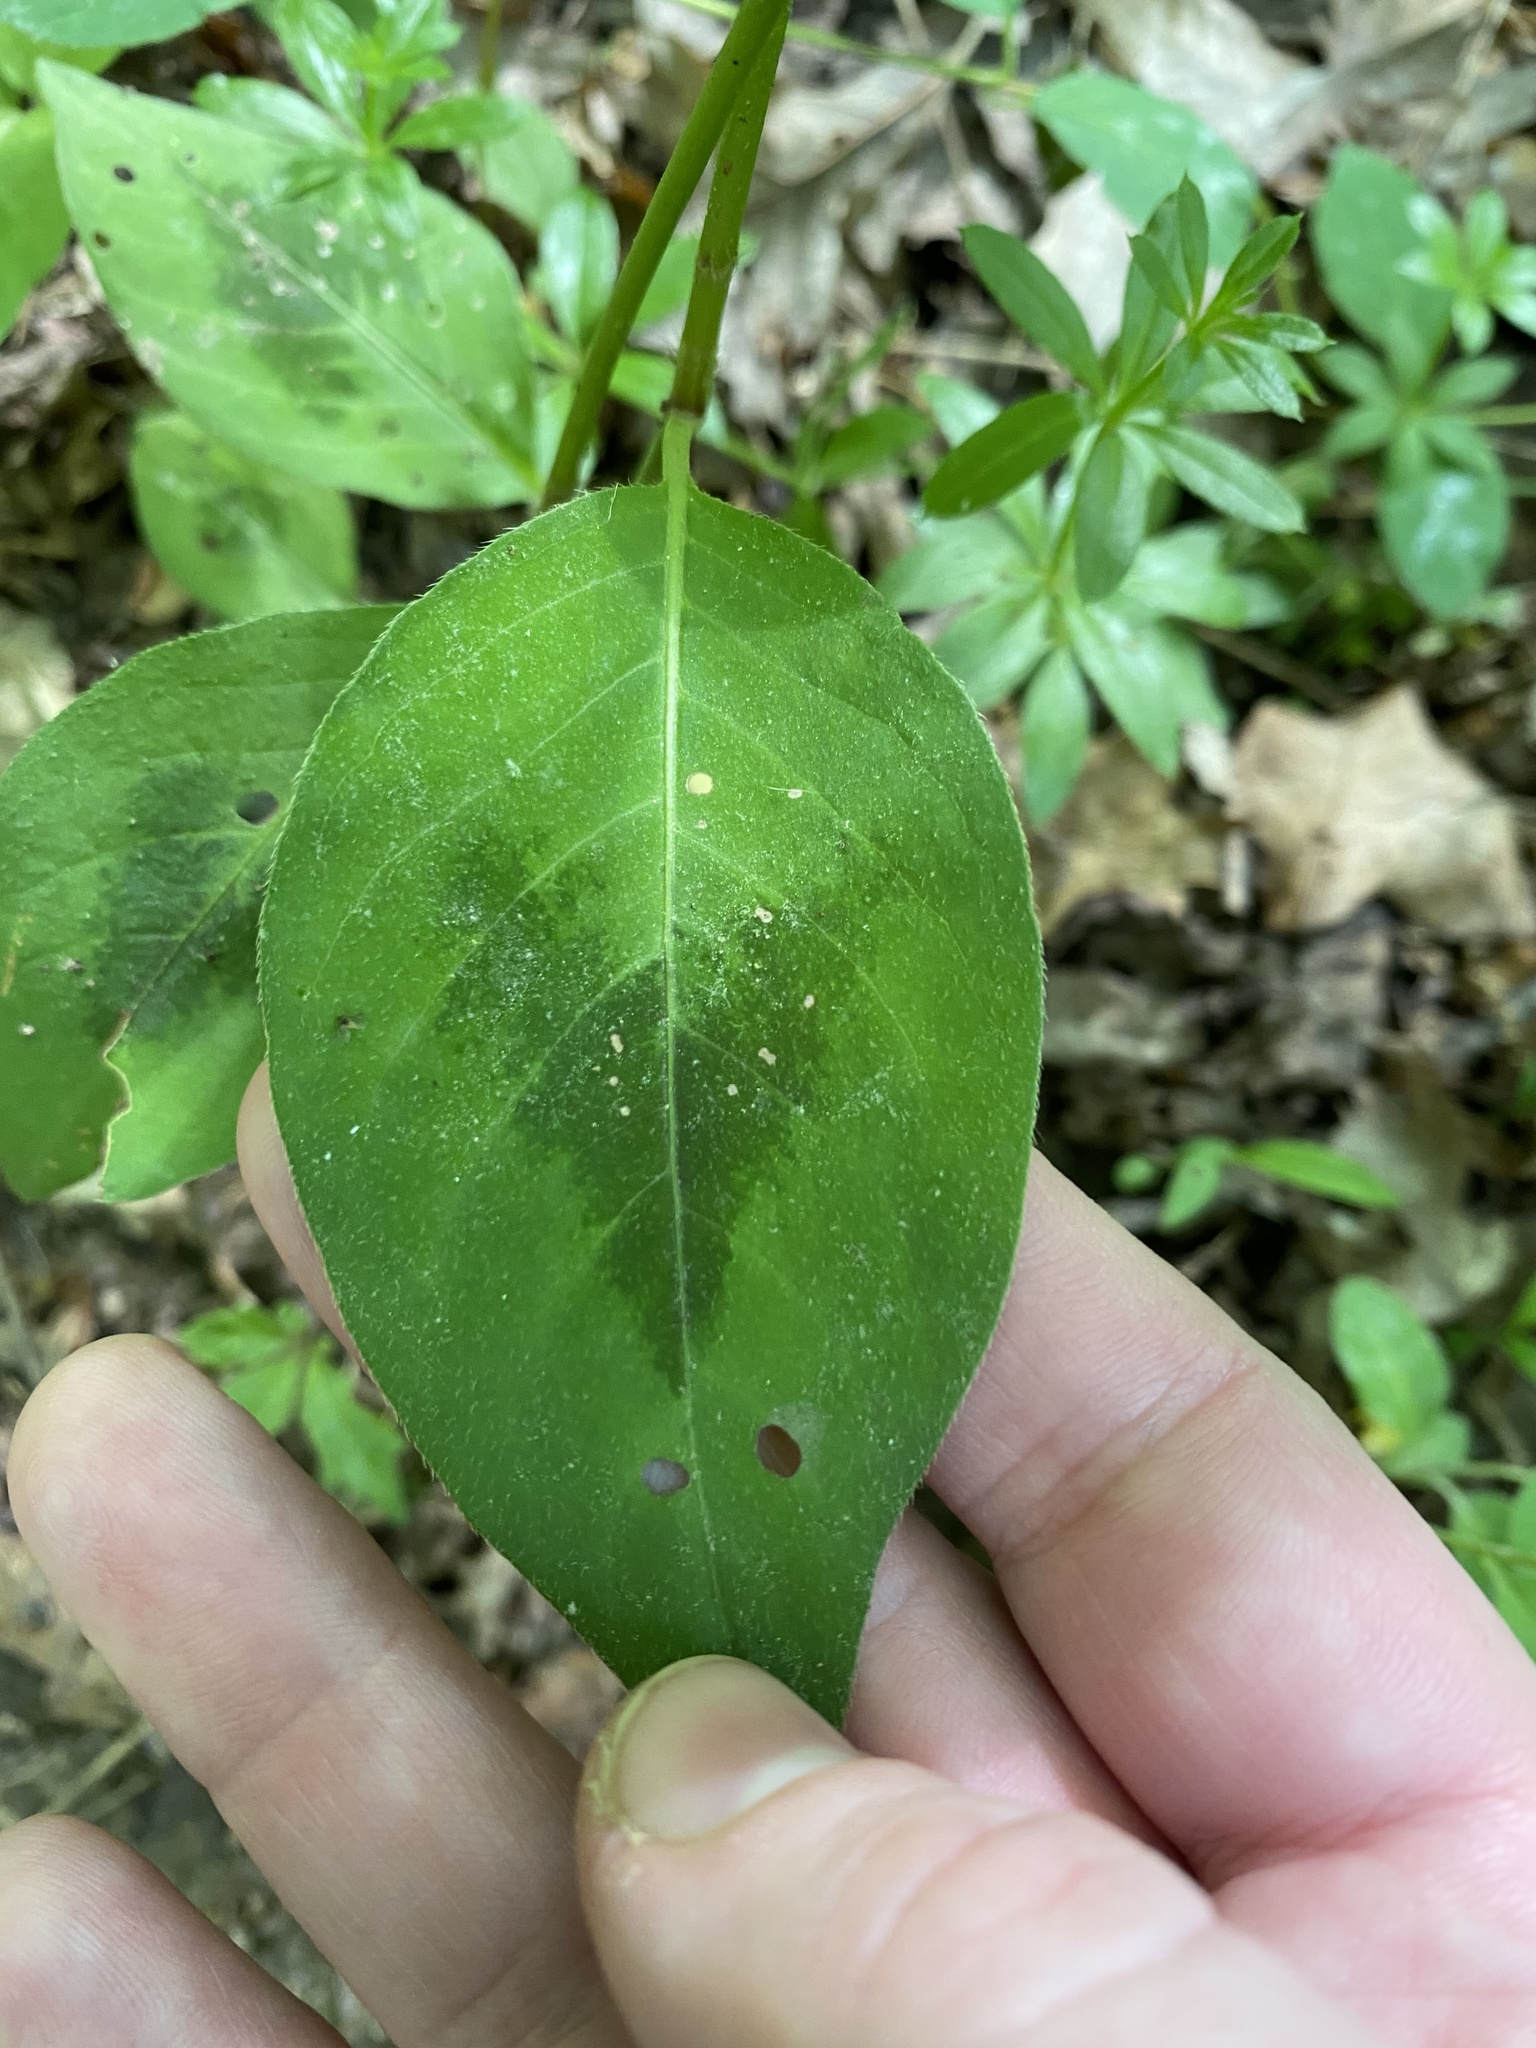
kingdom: Plantae
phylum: Tracheophyta
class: Magnoliopsida
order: Caryophyllales
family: Polygonaceae
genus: Persicaria
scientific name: Persicaria virginiana
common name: Jumpseed
